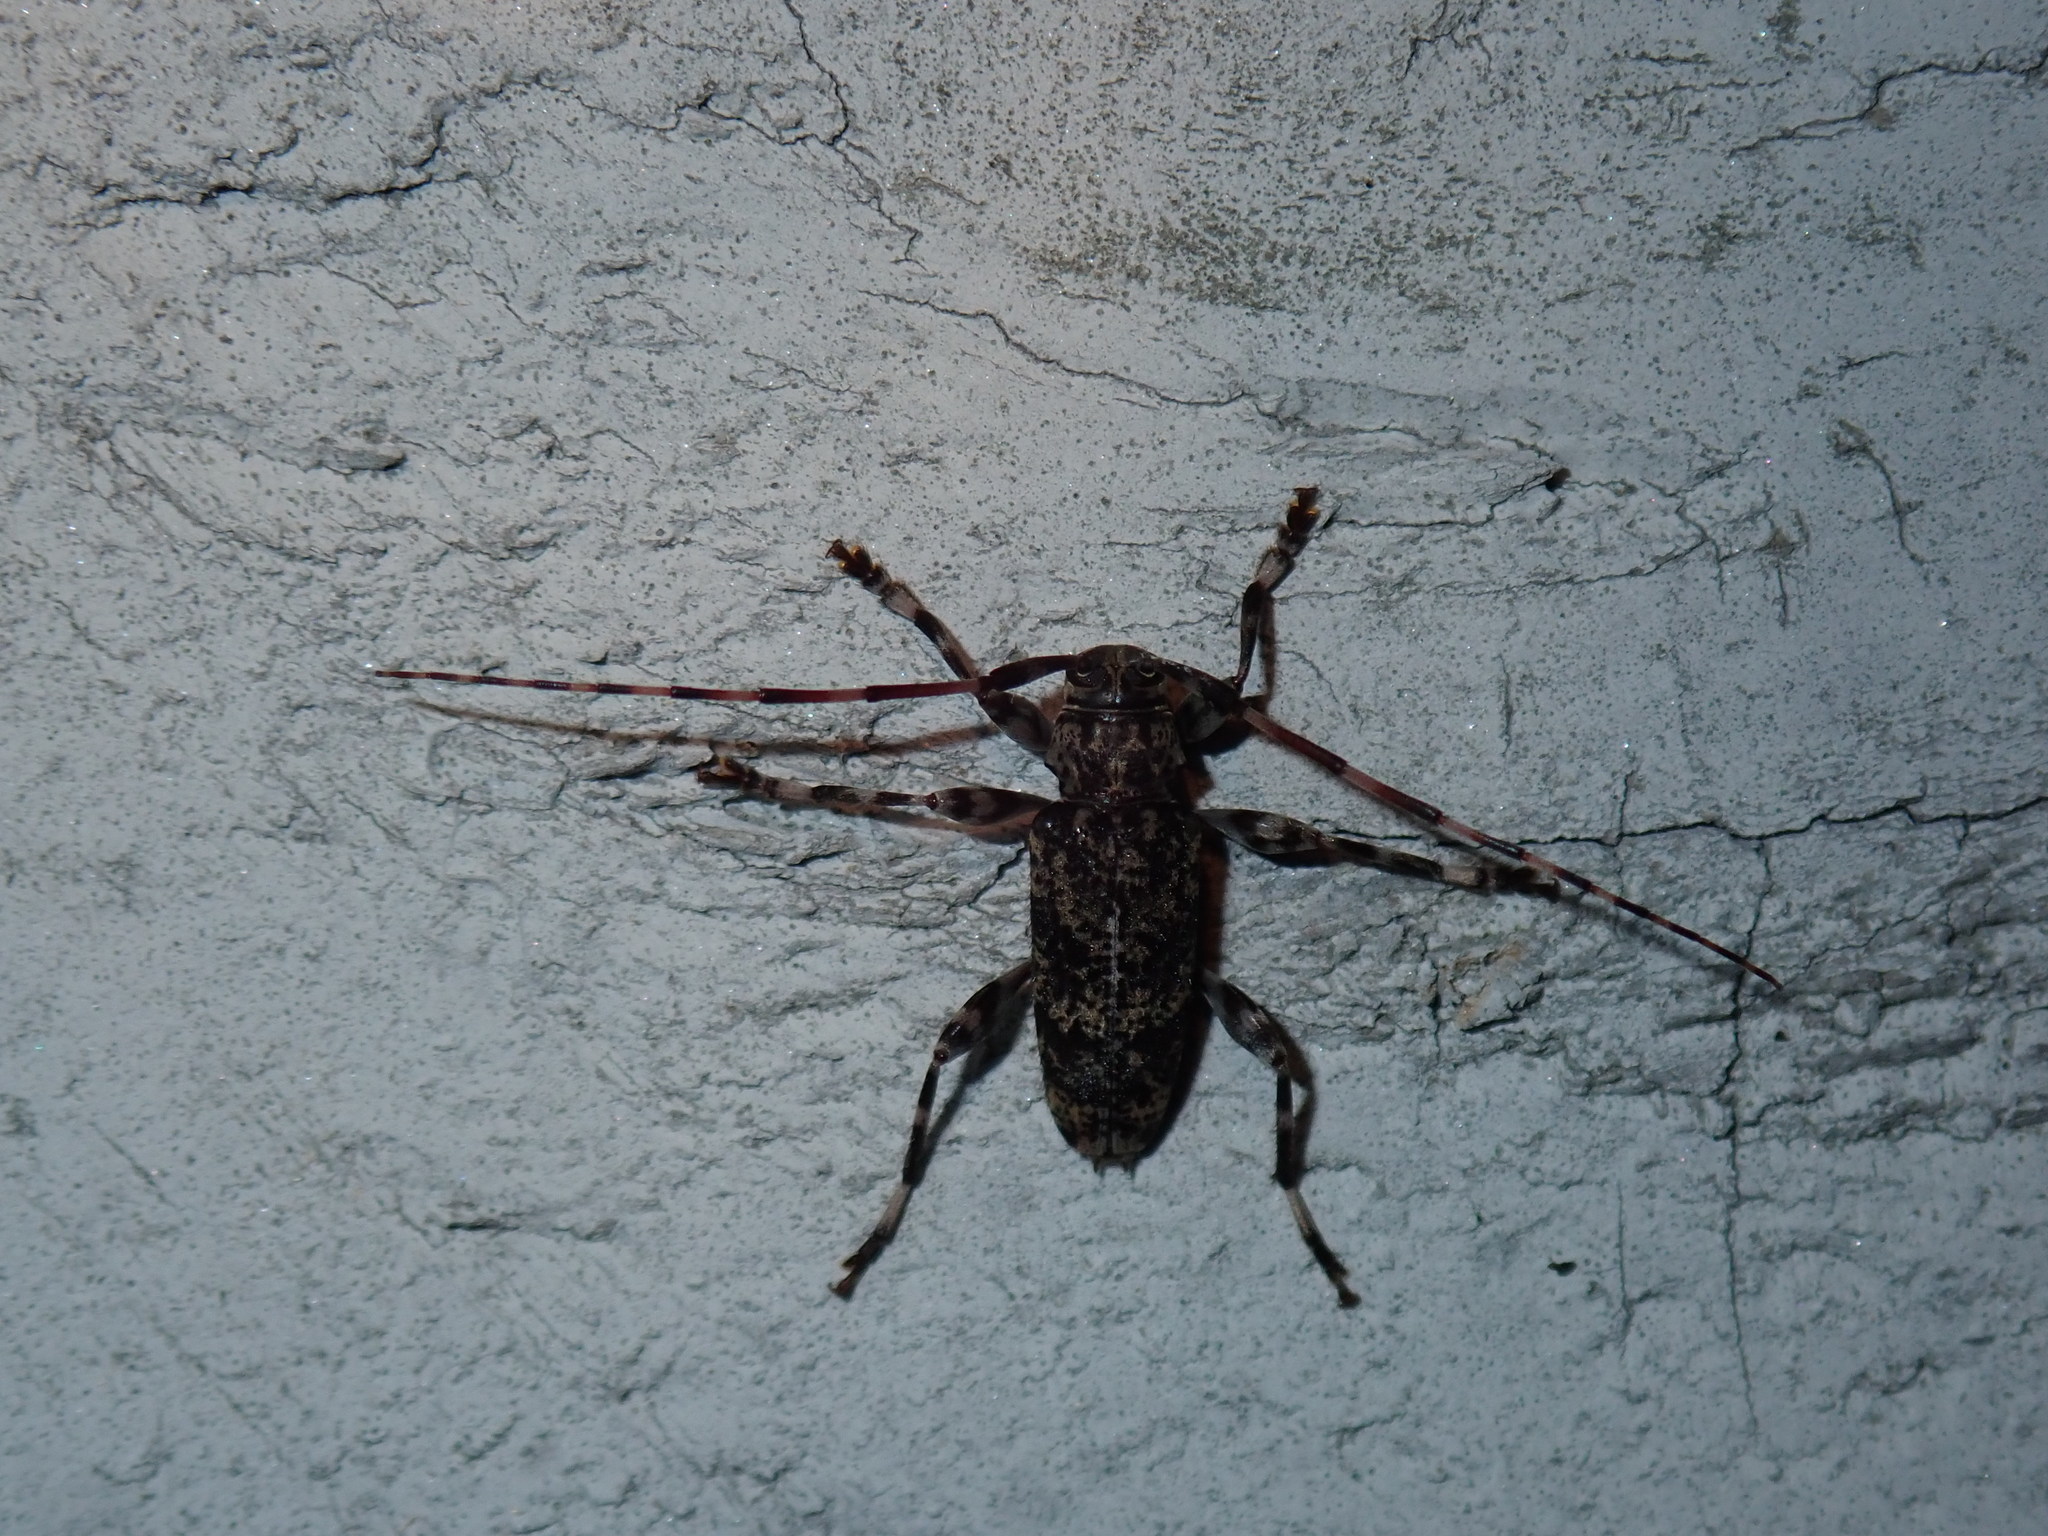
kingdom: Animalia
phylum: Arthropoda
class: Insecta
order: Coleoptera
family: Cerambycidae
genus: Graphisurus
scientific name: Graphisurus fasciatus
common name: Banded graphisurus
